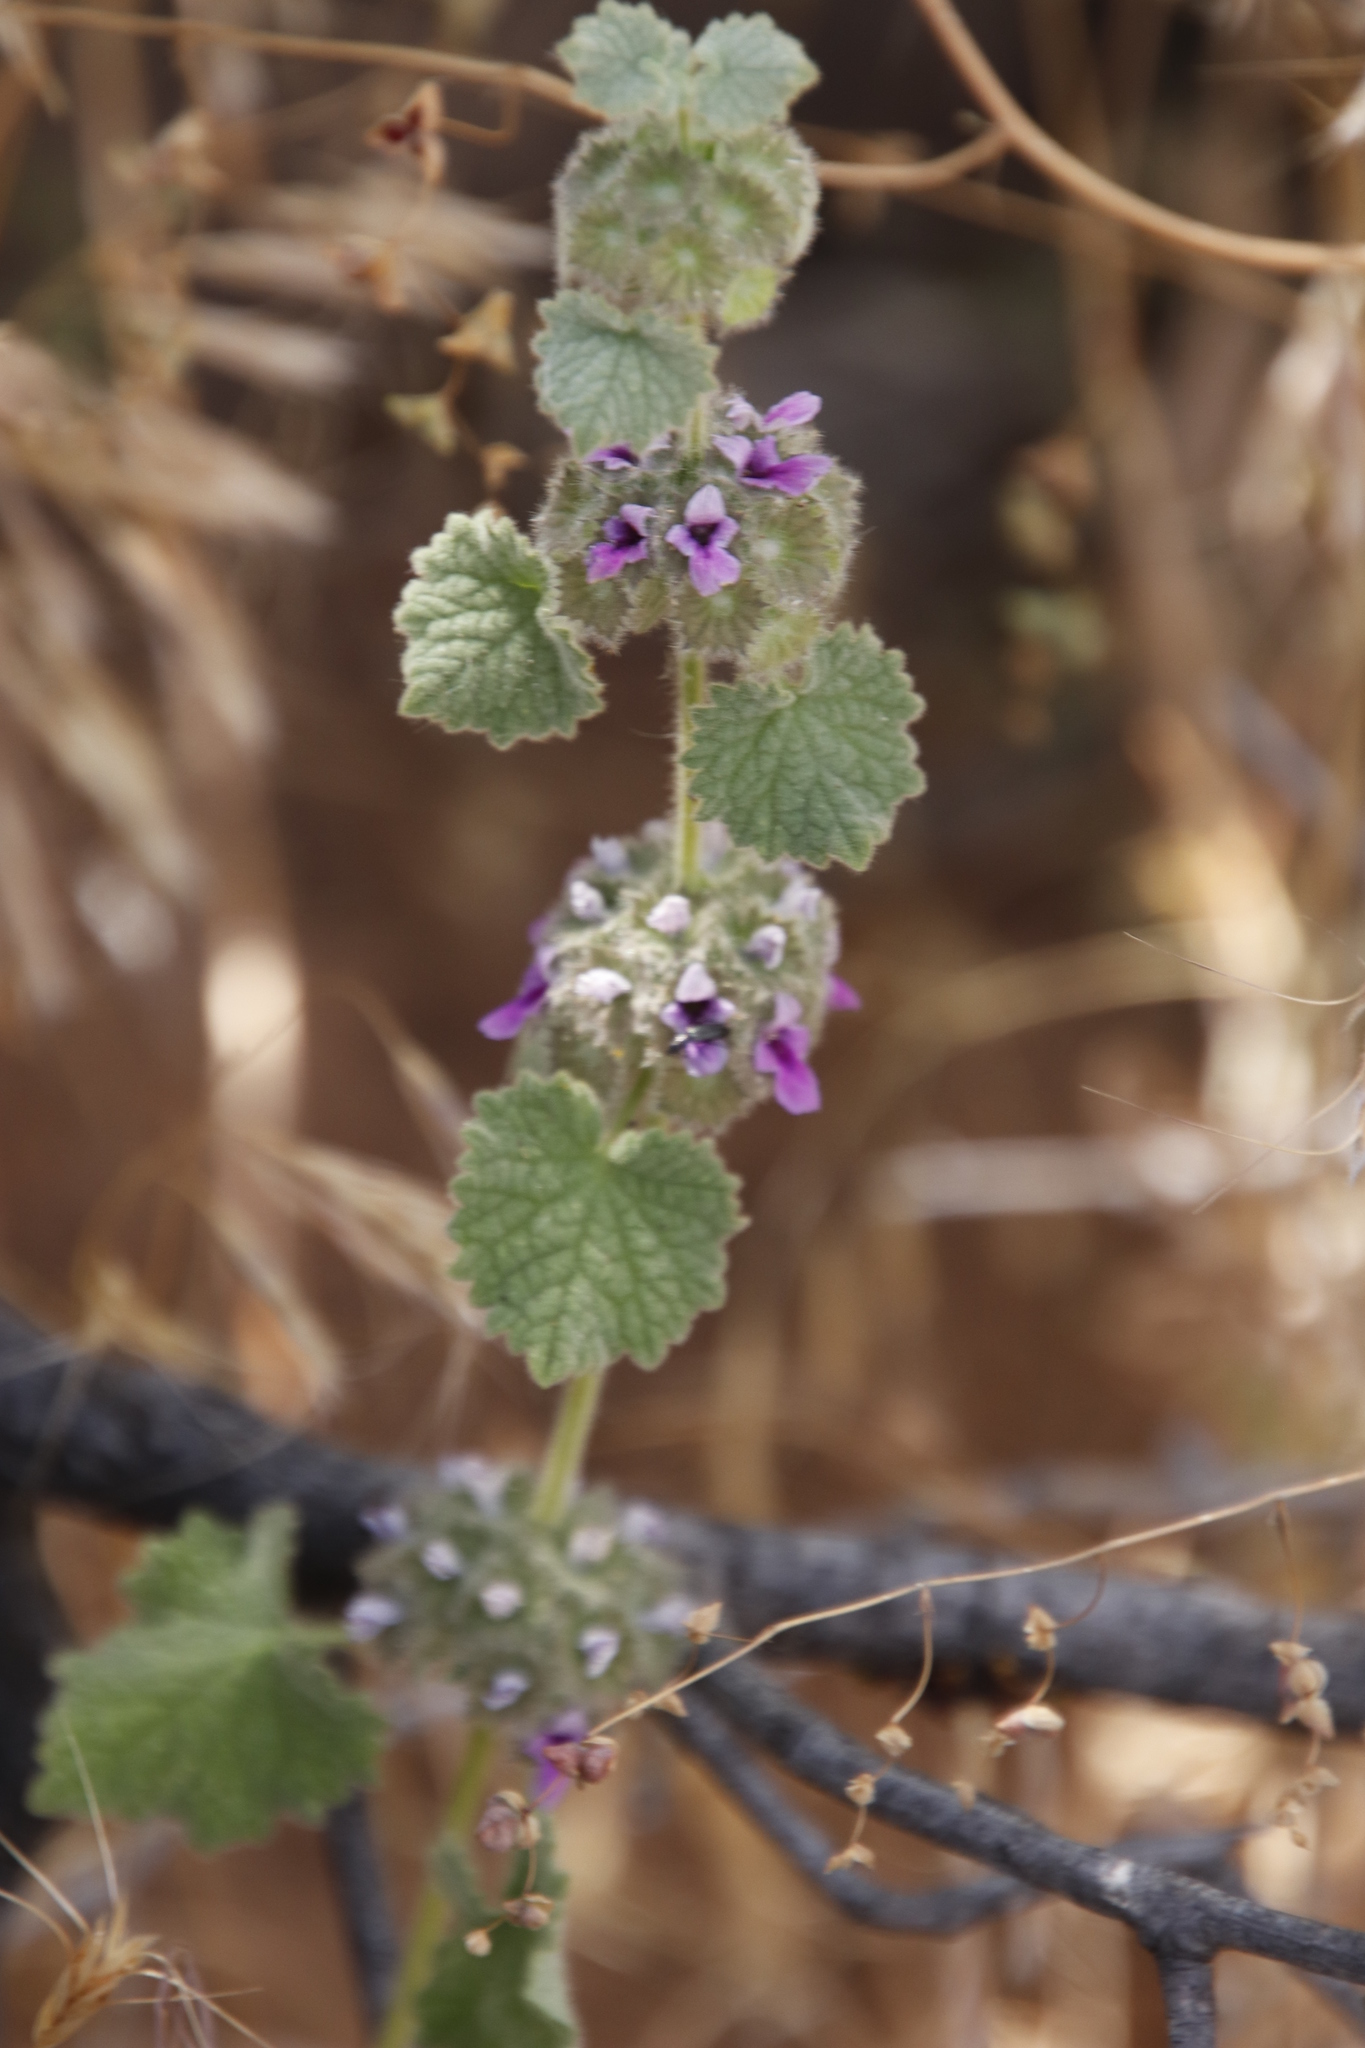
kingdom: Plantae
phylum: Tracheophyta
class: Magnoliopsida
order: Lamiales
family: Lamiaceae
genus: Pseudodictamnus
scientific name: Pseudodictamnus africanus
